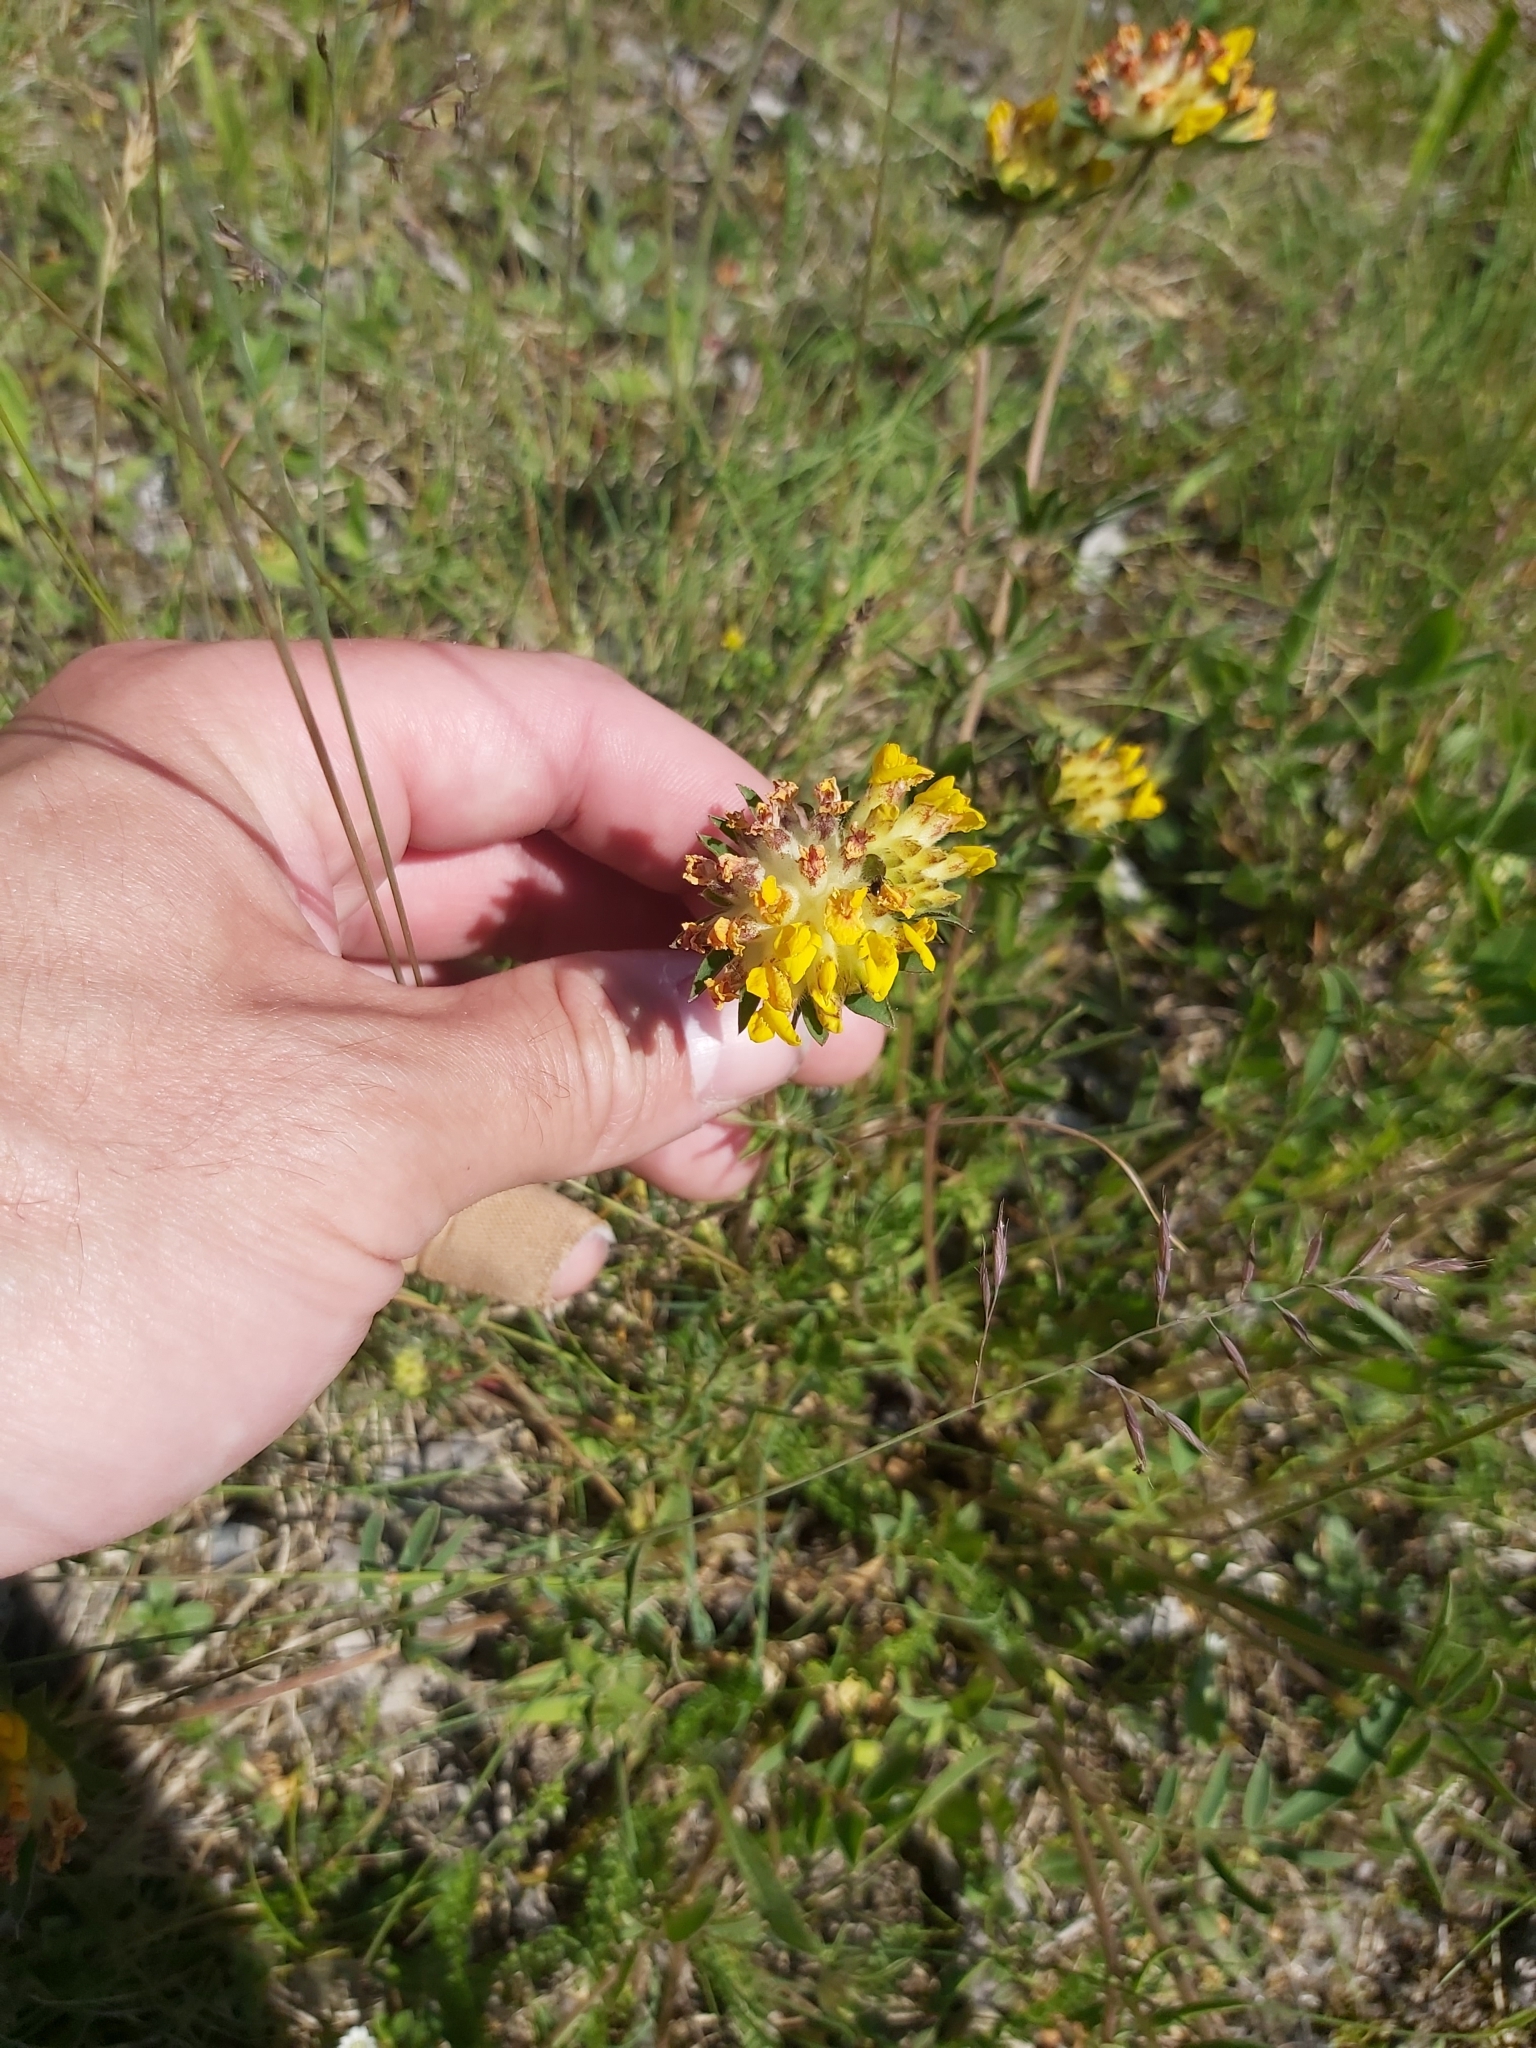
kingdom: Plantae
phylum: Tracheophyta
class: Magnoliopsida
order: Fabales
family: Fabaceae
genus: Anthyllis
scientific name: Anthyllis vulneraria
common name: Kidney vetch
